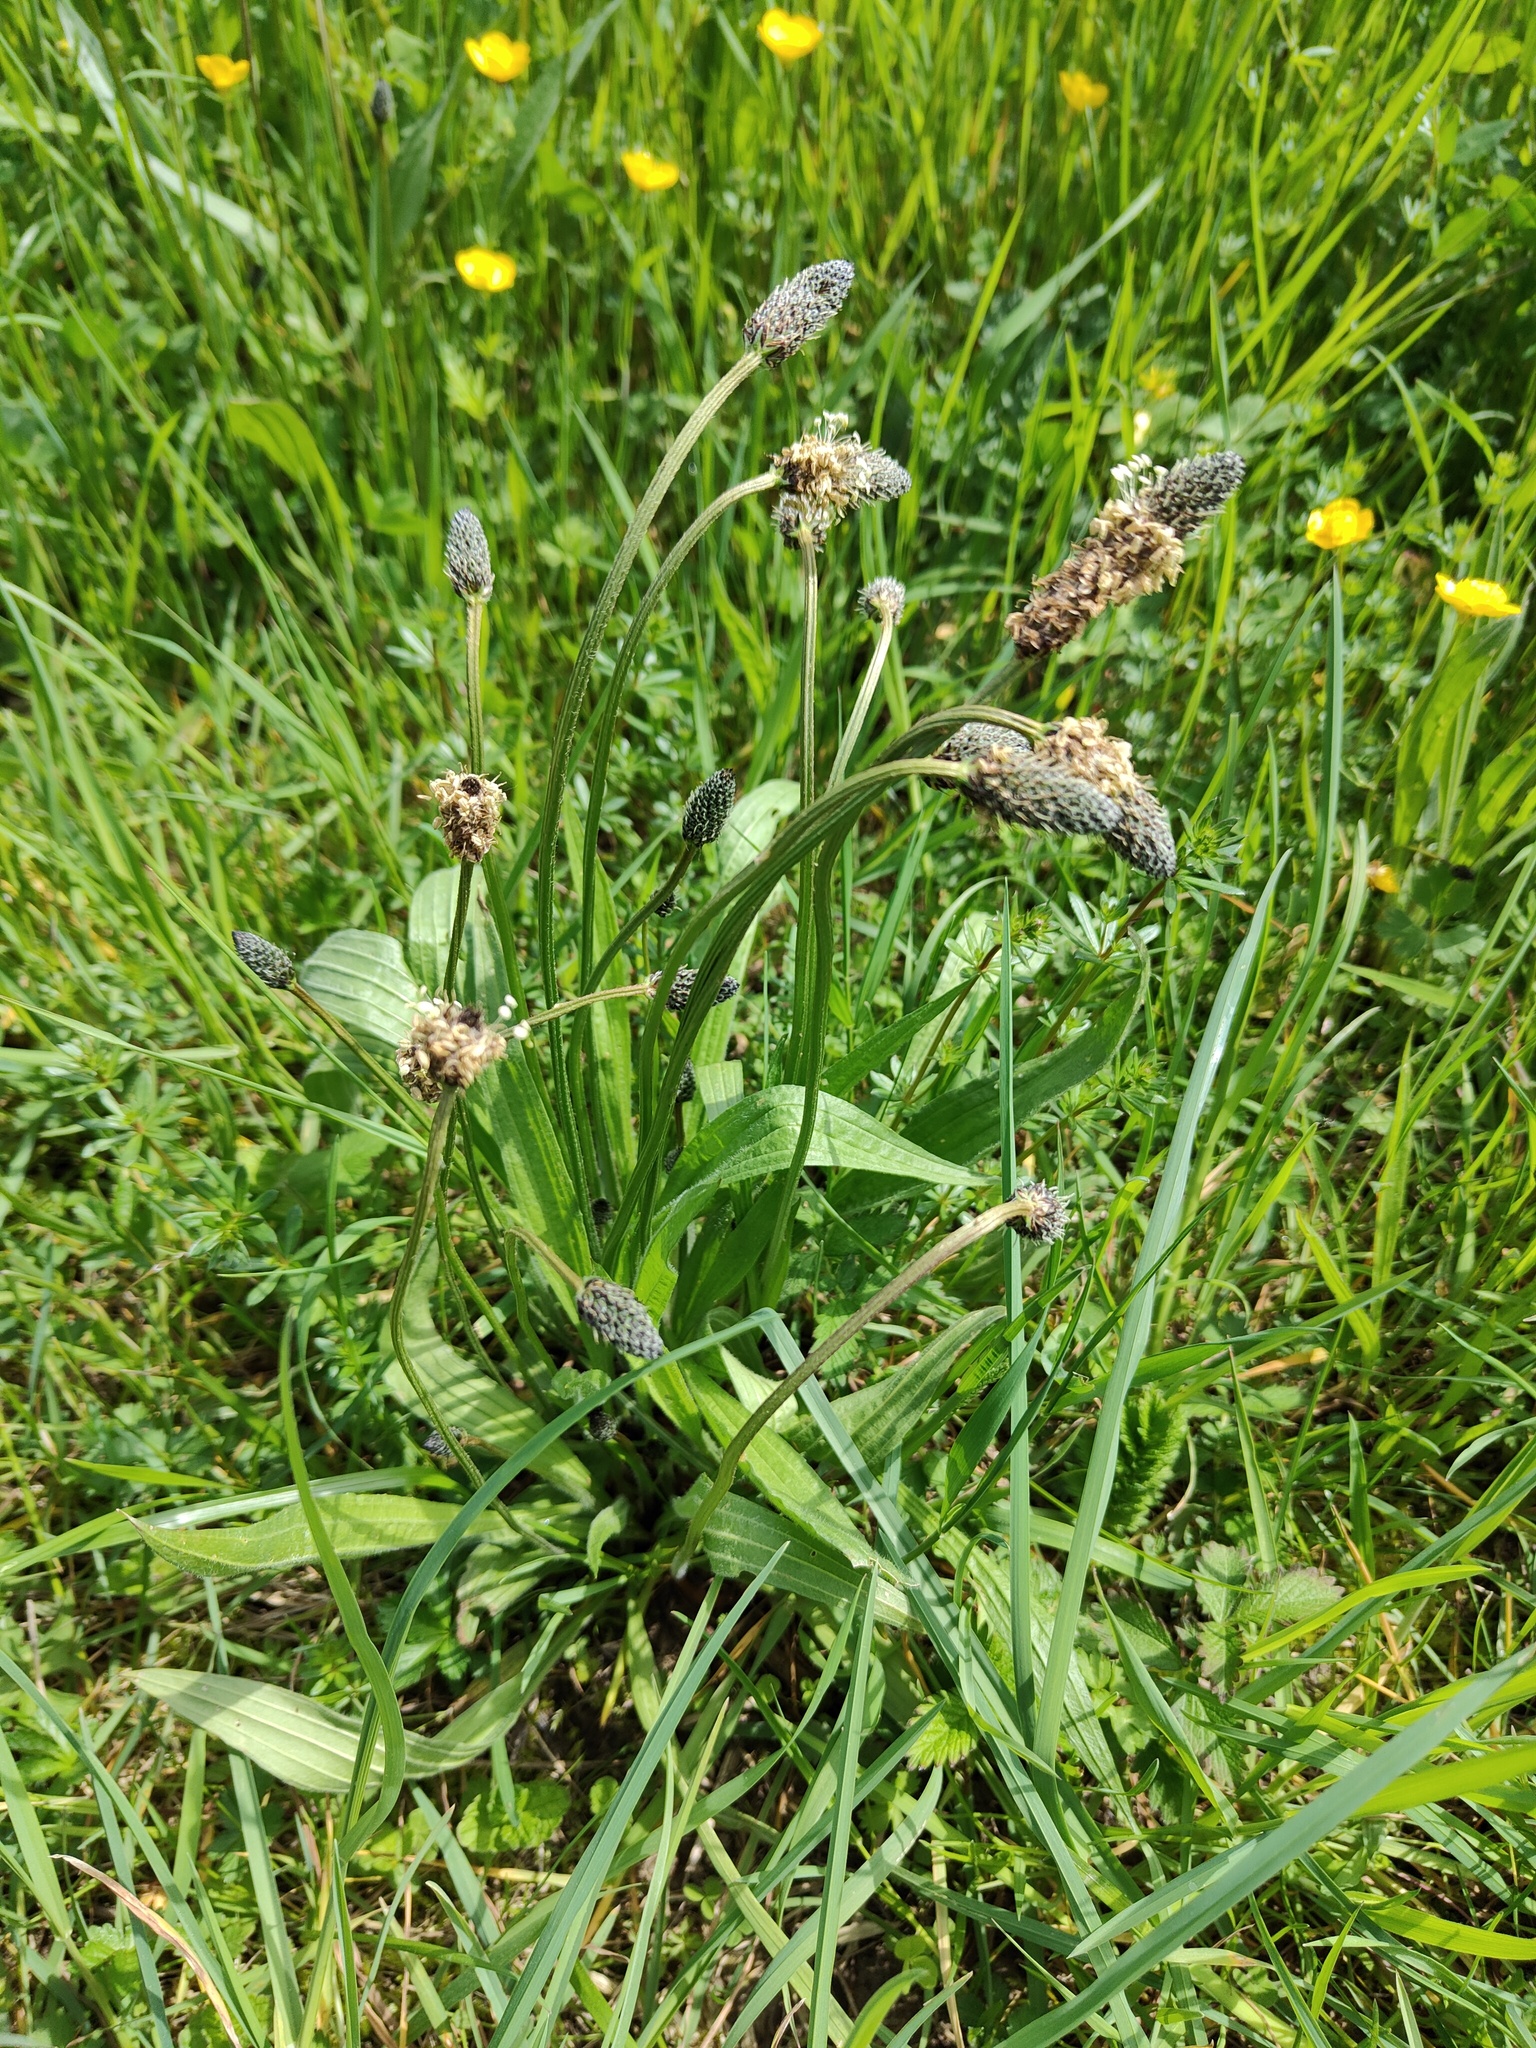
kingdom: Plantae
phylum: Tracheophyta
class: Magnoliopsida
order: Lamiales
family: Plantaginaceae
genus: Plantago
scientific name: Plantago lanceolata
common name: Ribwort plantain
